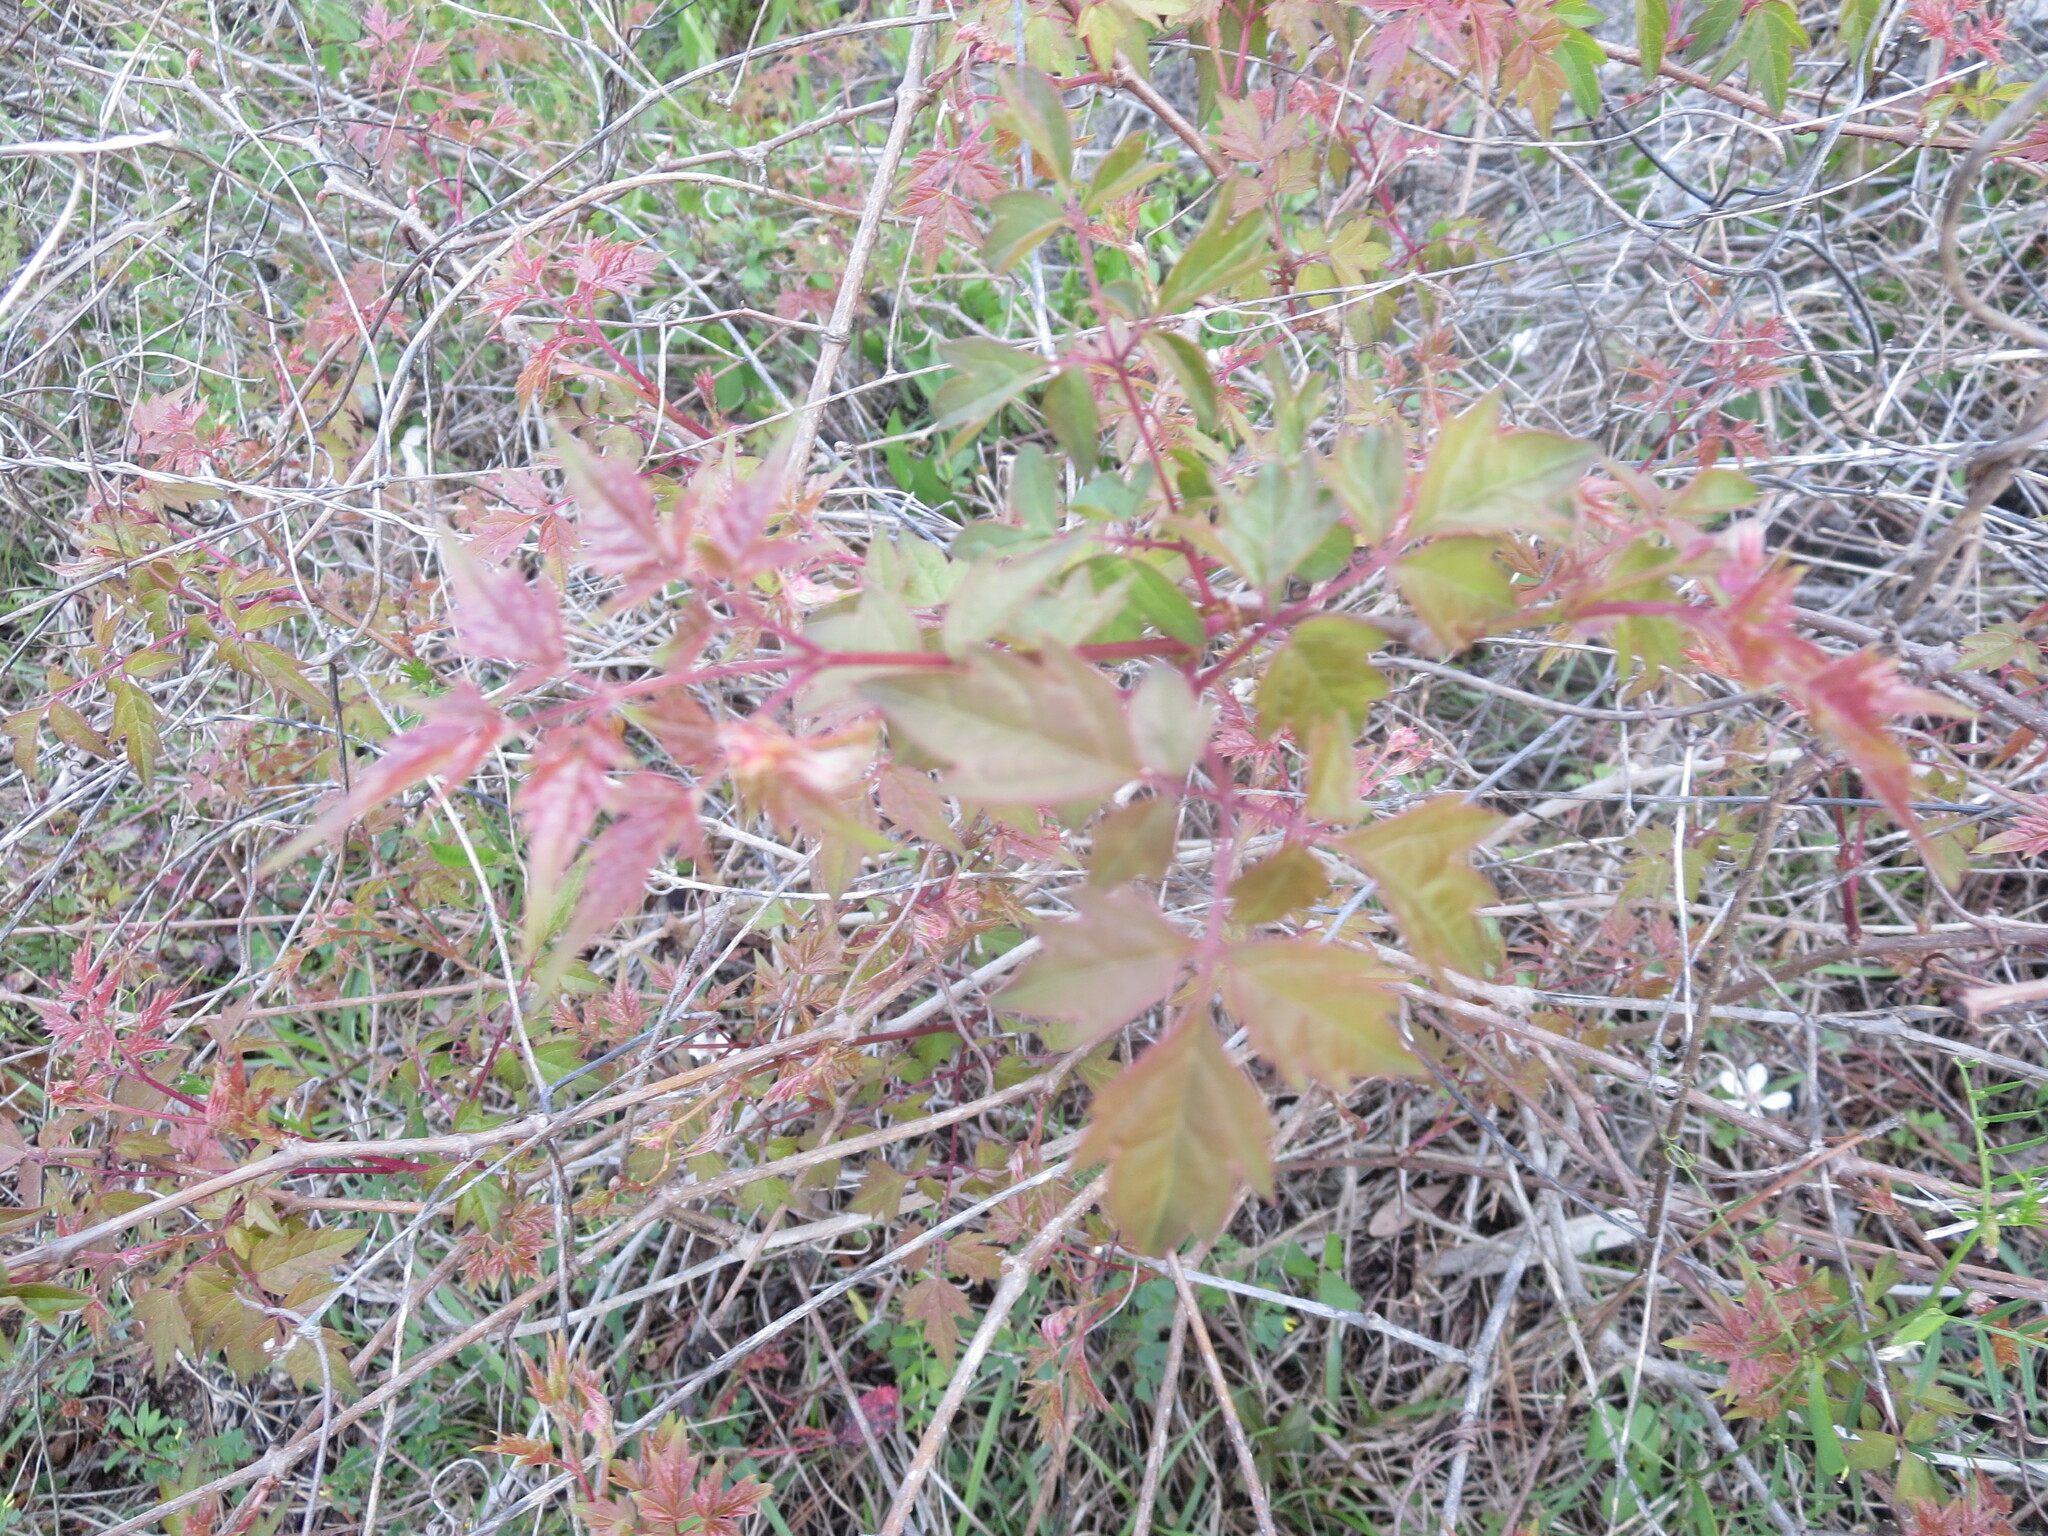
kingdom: Plantae
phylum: Tracheophyta
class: Magnoliopsida
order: Vitales
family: Vitaceae
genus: Nekemias
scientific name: Nekemias arborea
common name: Peppervine
